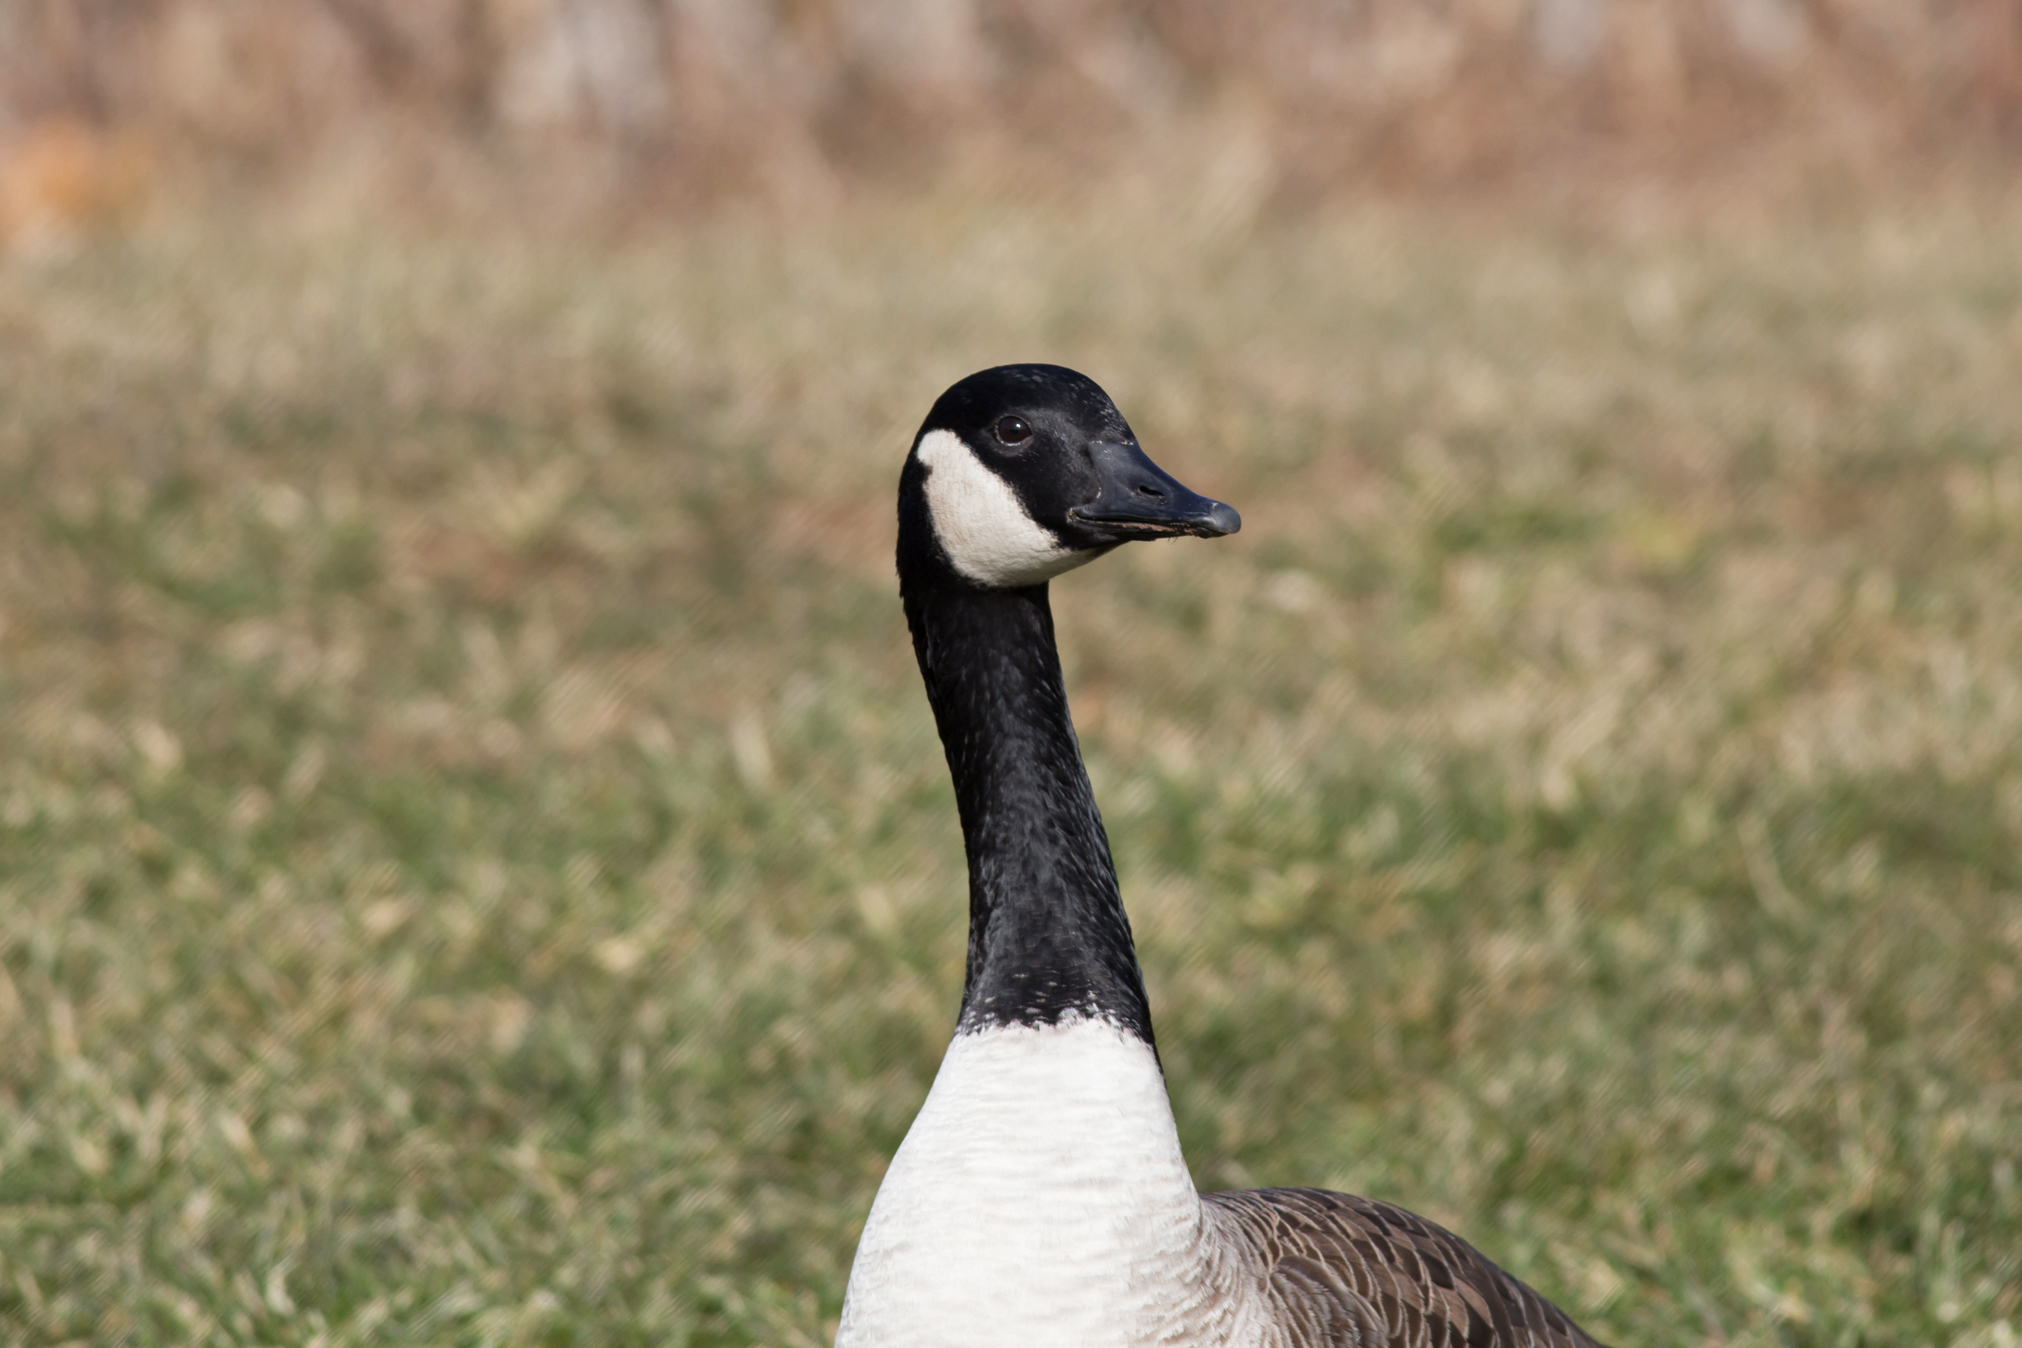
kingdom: Animalia
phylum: Chordata
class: Aves
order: Anseriformes
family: Anatidae
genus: Branta
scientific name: Branta canadensis
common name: Canada goose
